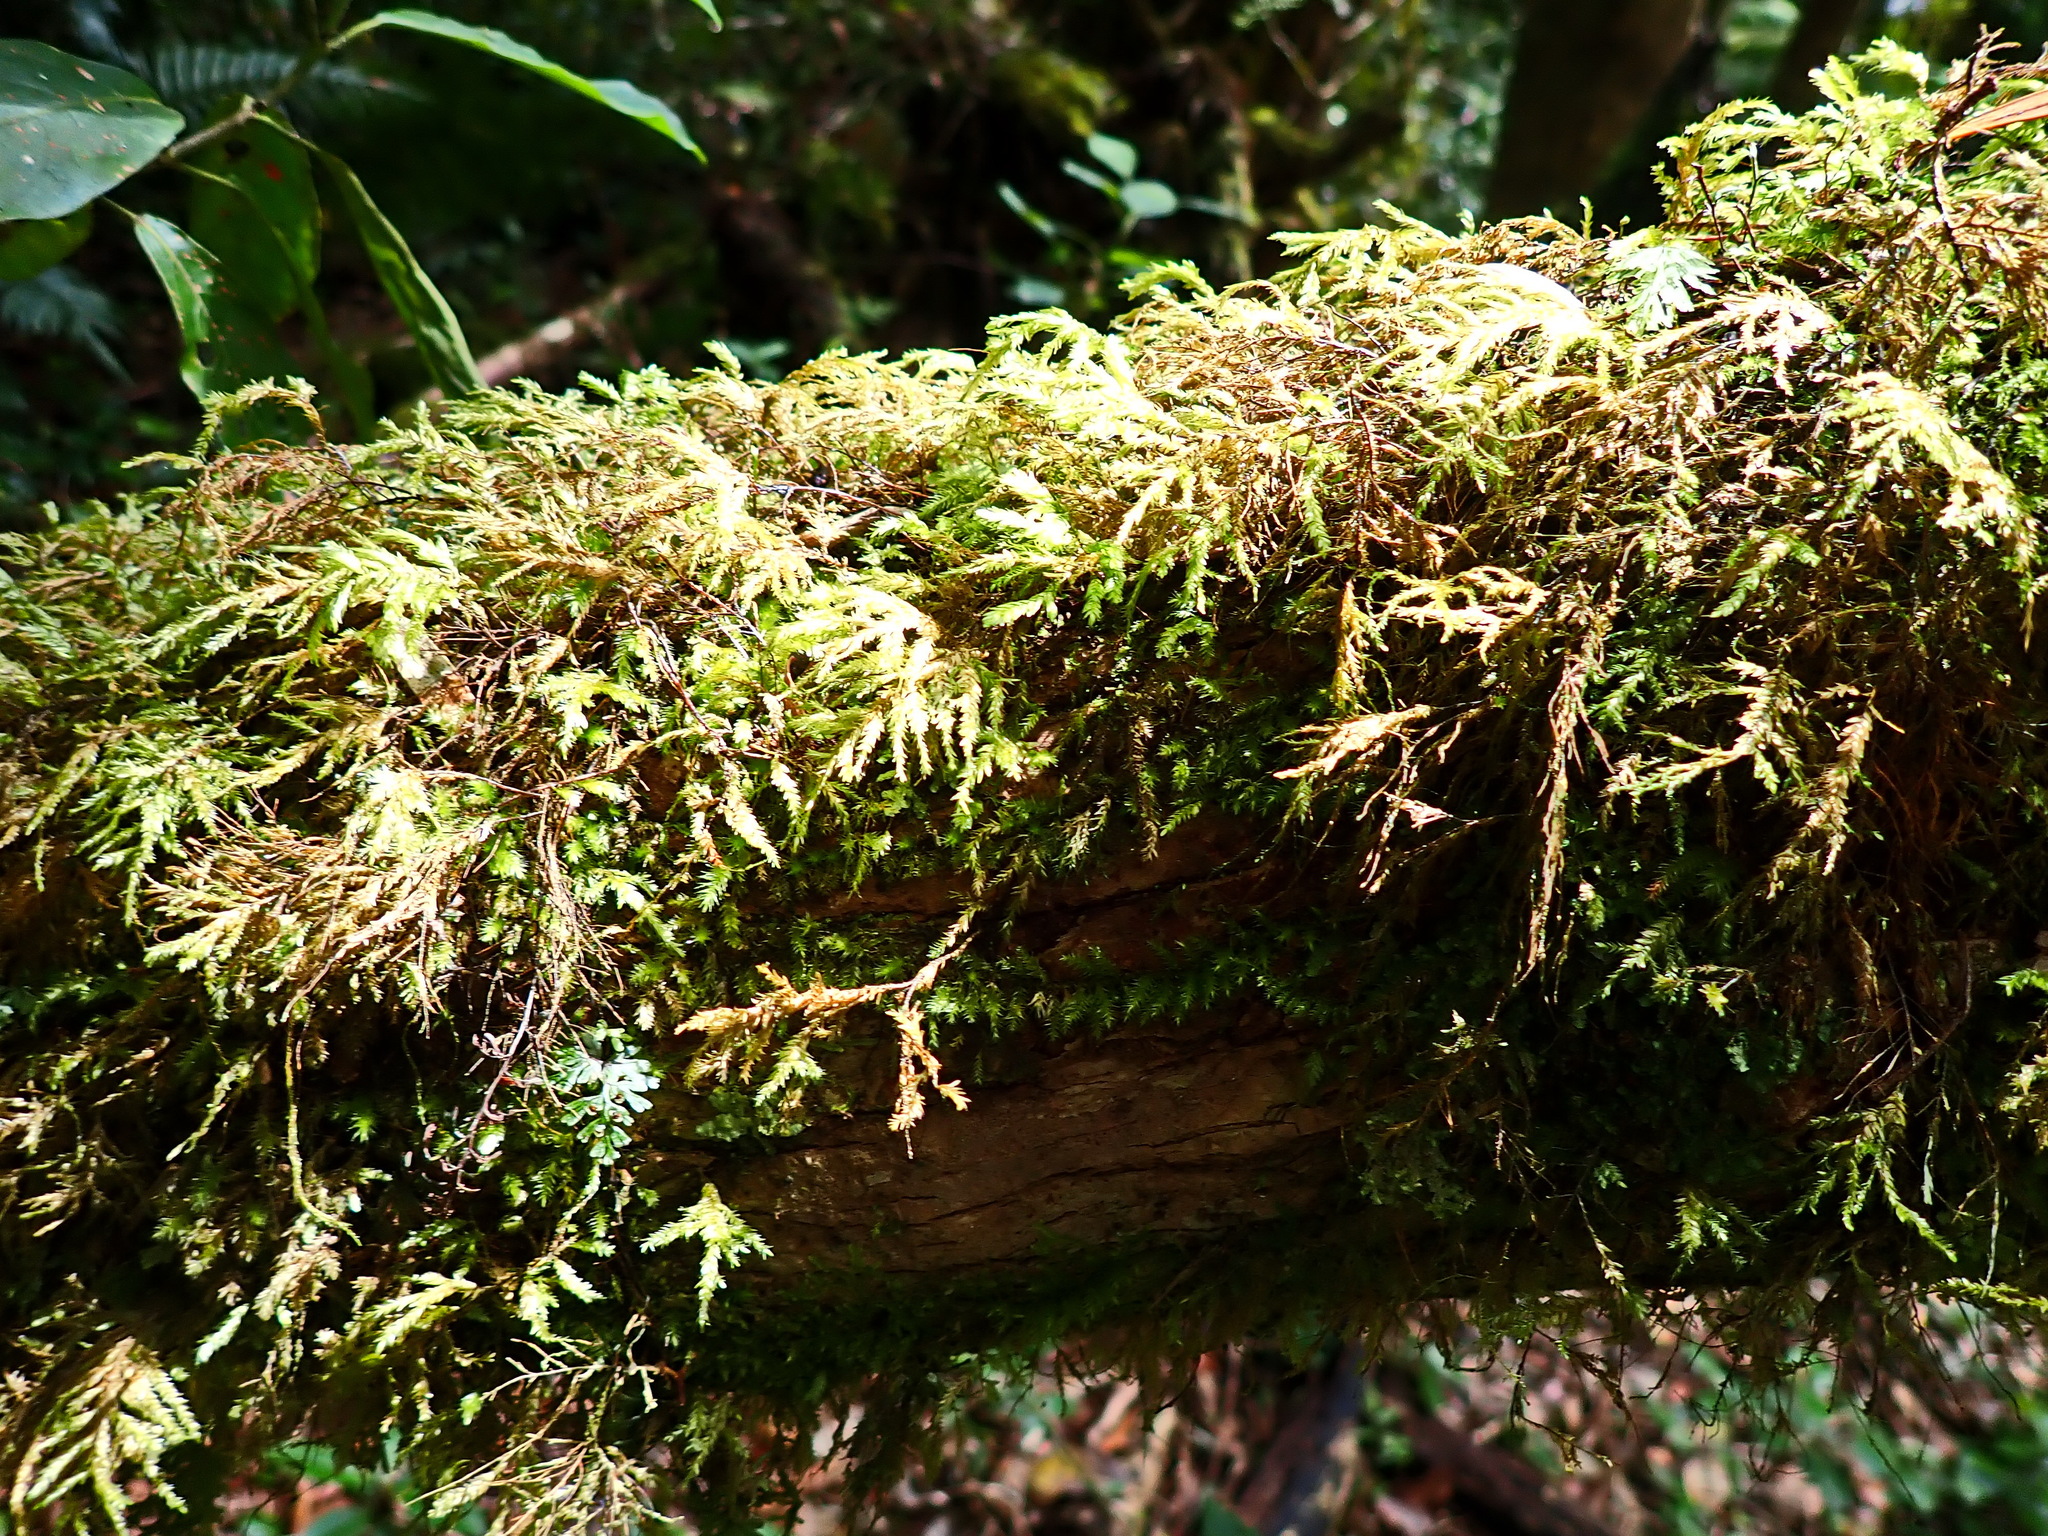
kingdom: Plantae
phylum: Bryophyta
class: Bryopsida
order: Hypnales
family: Neckeraceae
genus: Porotrichum
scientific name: Porotrichum madagassum
